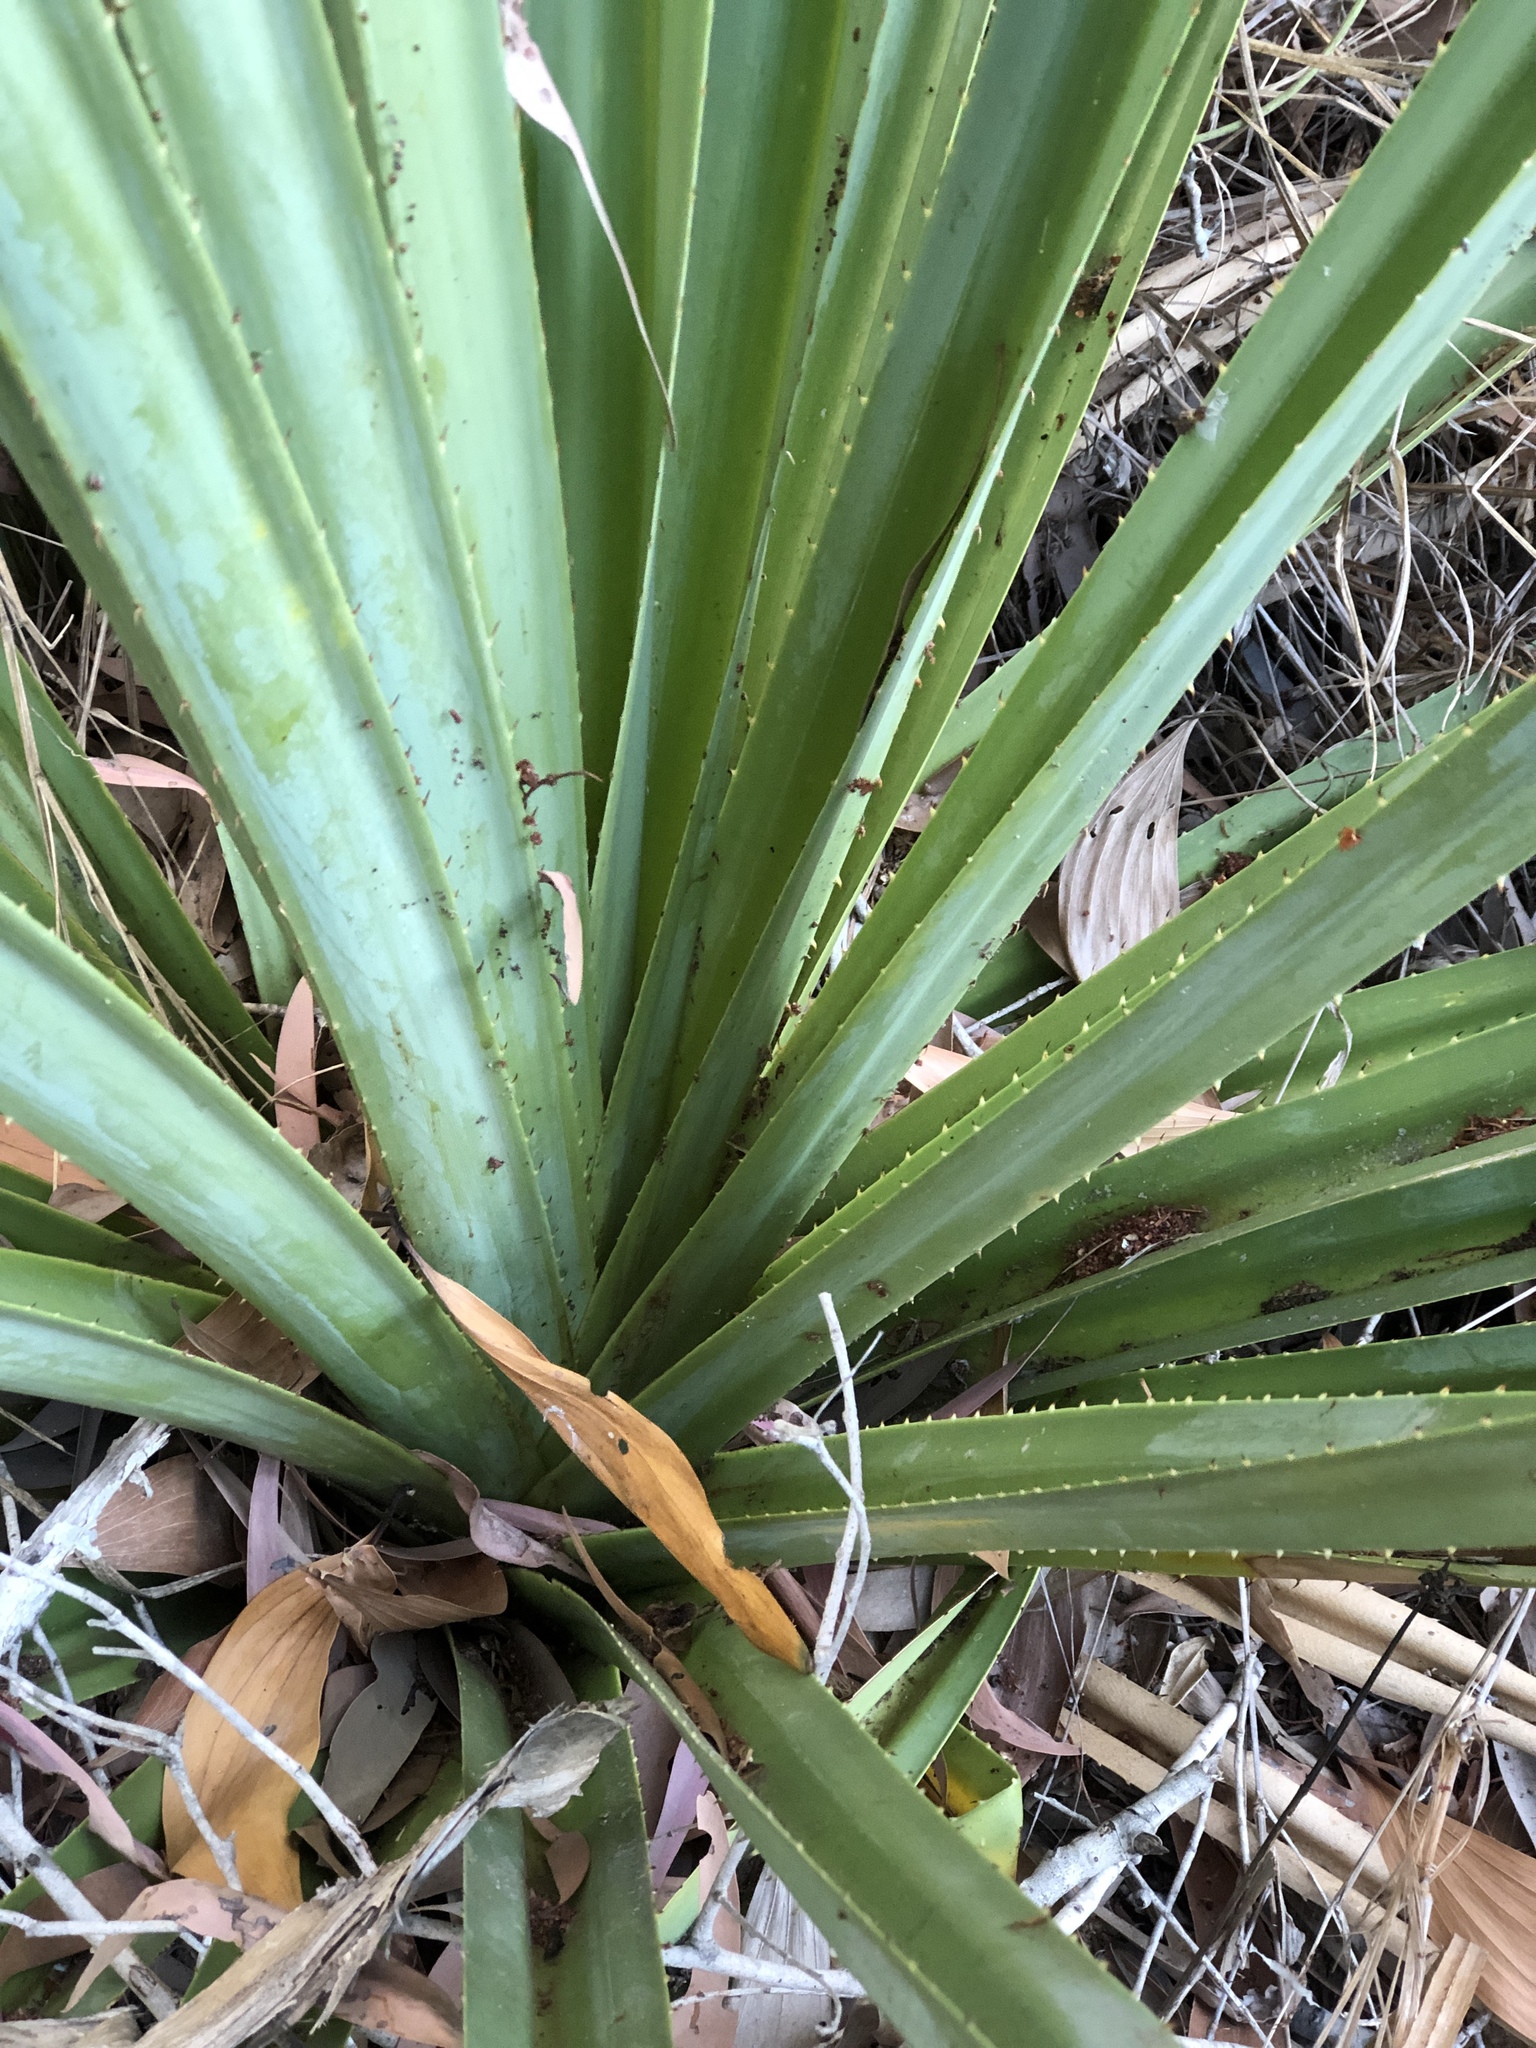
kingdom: Plantae
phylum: Tracheophyta
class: Liliopsida
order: Pandanales
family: Pandanaceae
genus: Pandanus
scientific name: Pandanus tectorius
